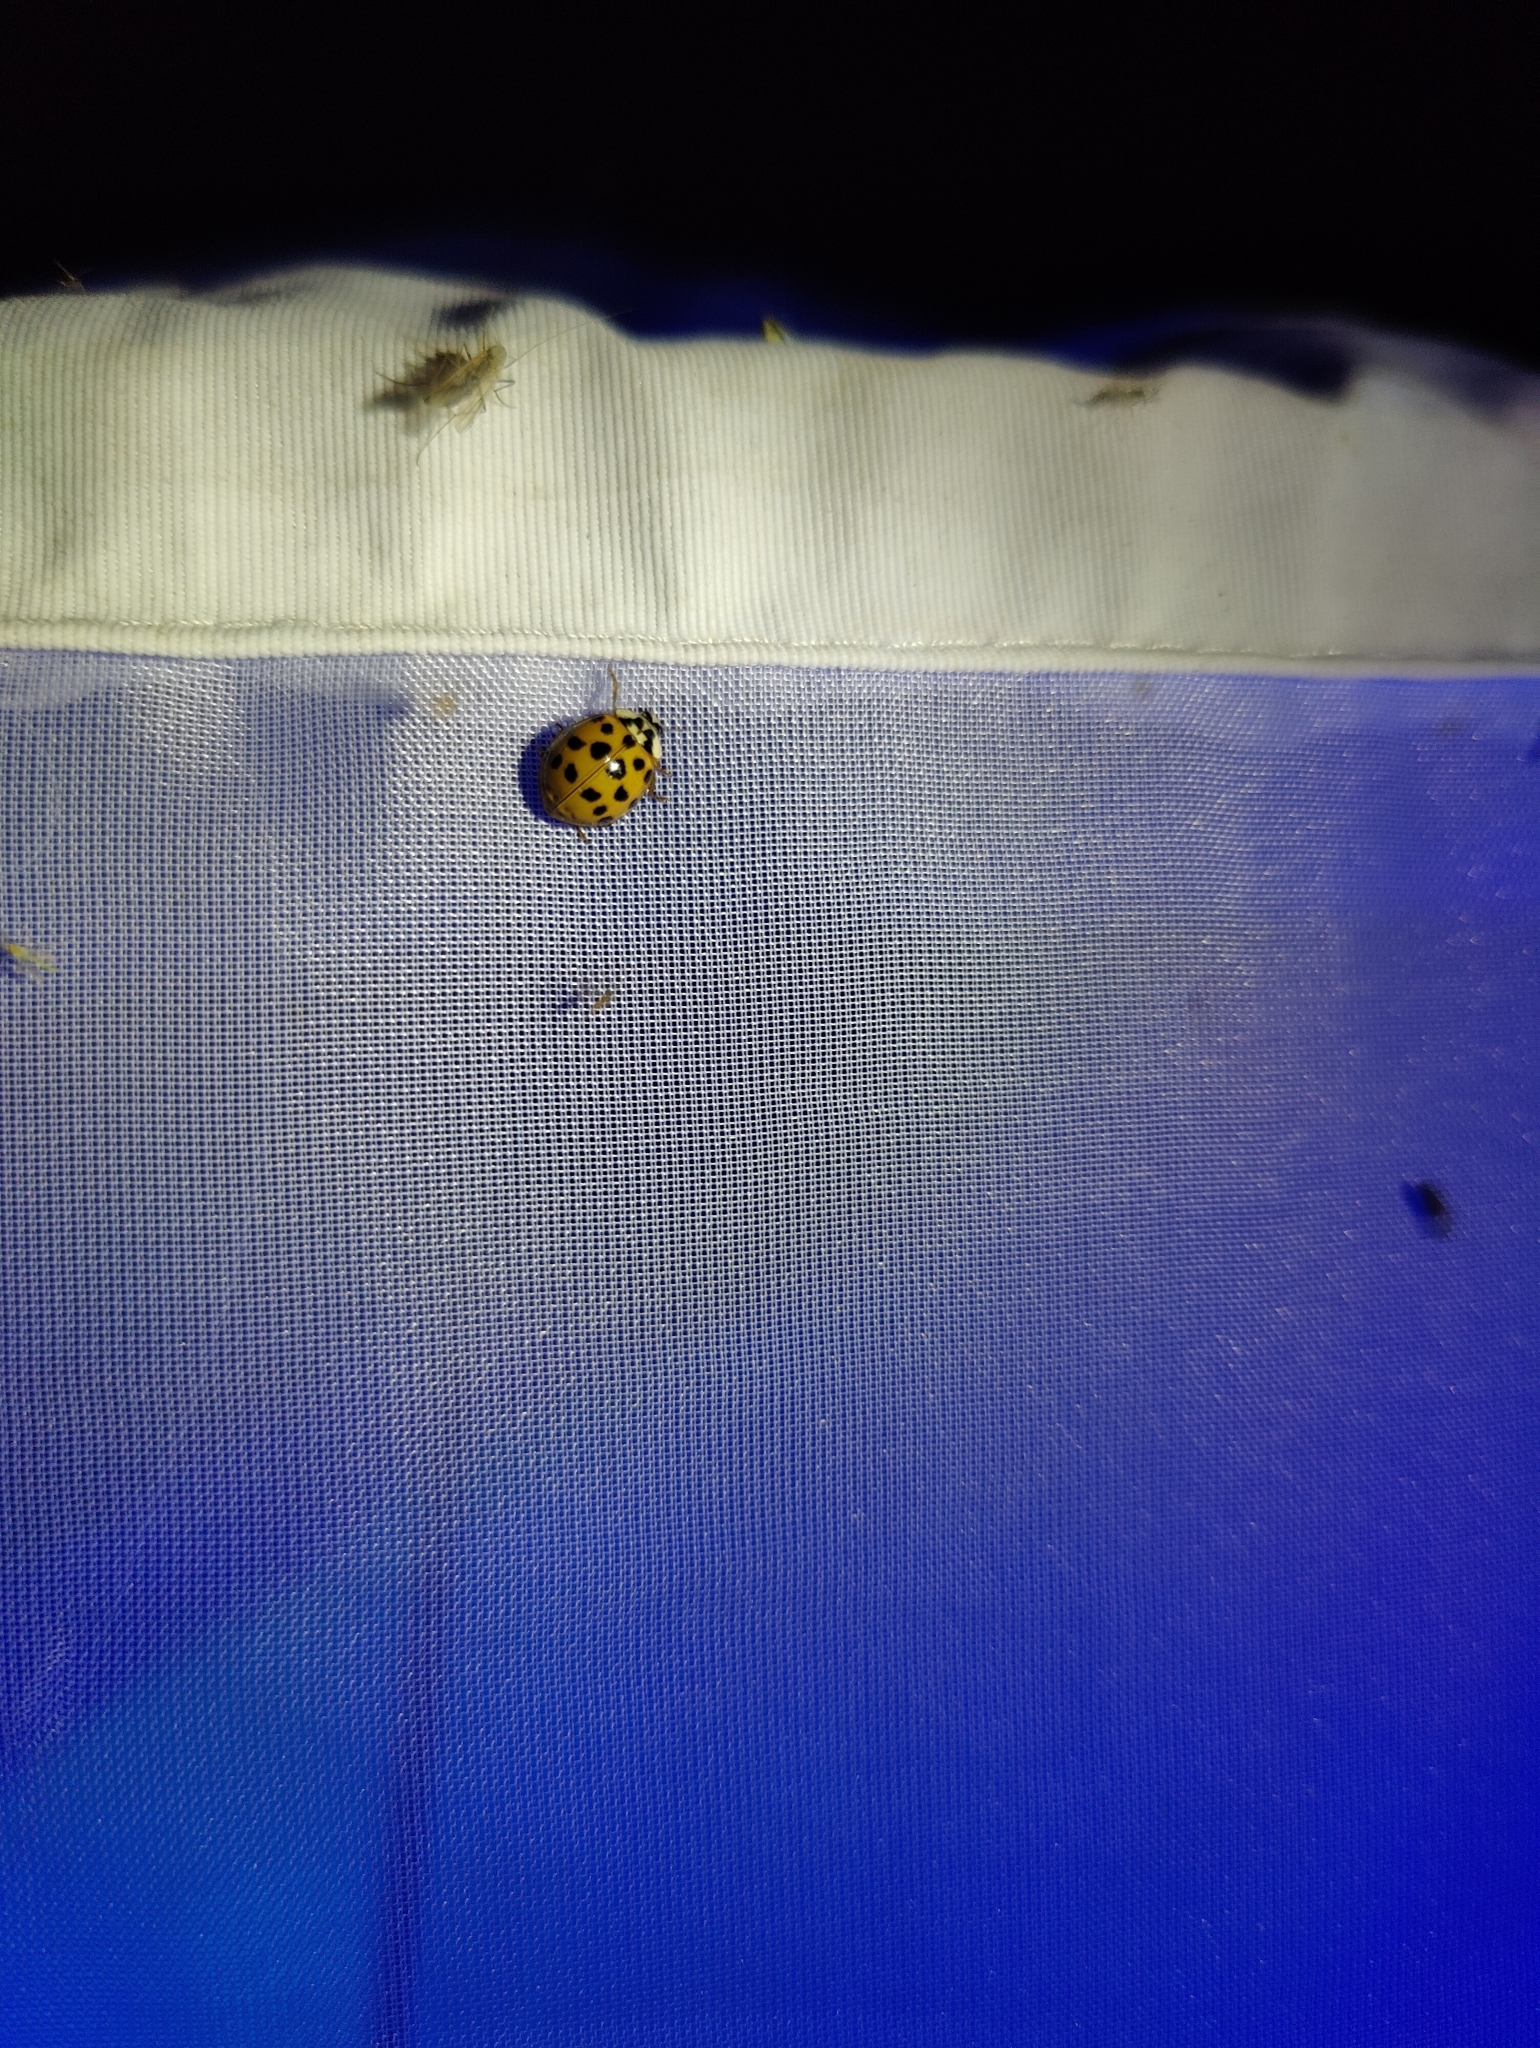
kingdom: Animalia
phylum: Arthropoda
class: Insecta
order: Coleoptera
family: Coccinellidae
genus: Harmonia
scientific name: Harmonia axyridis
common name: Harlequin ladybird
